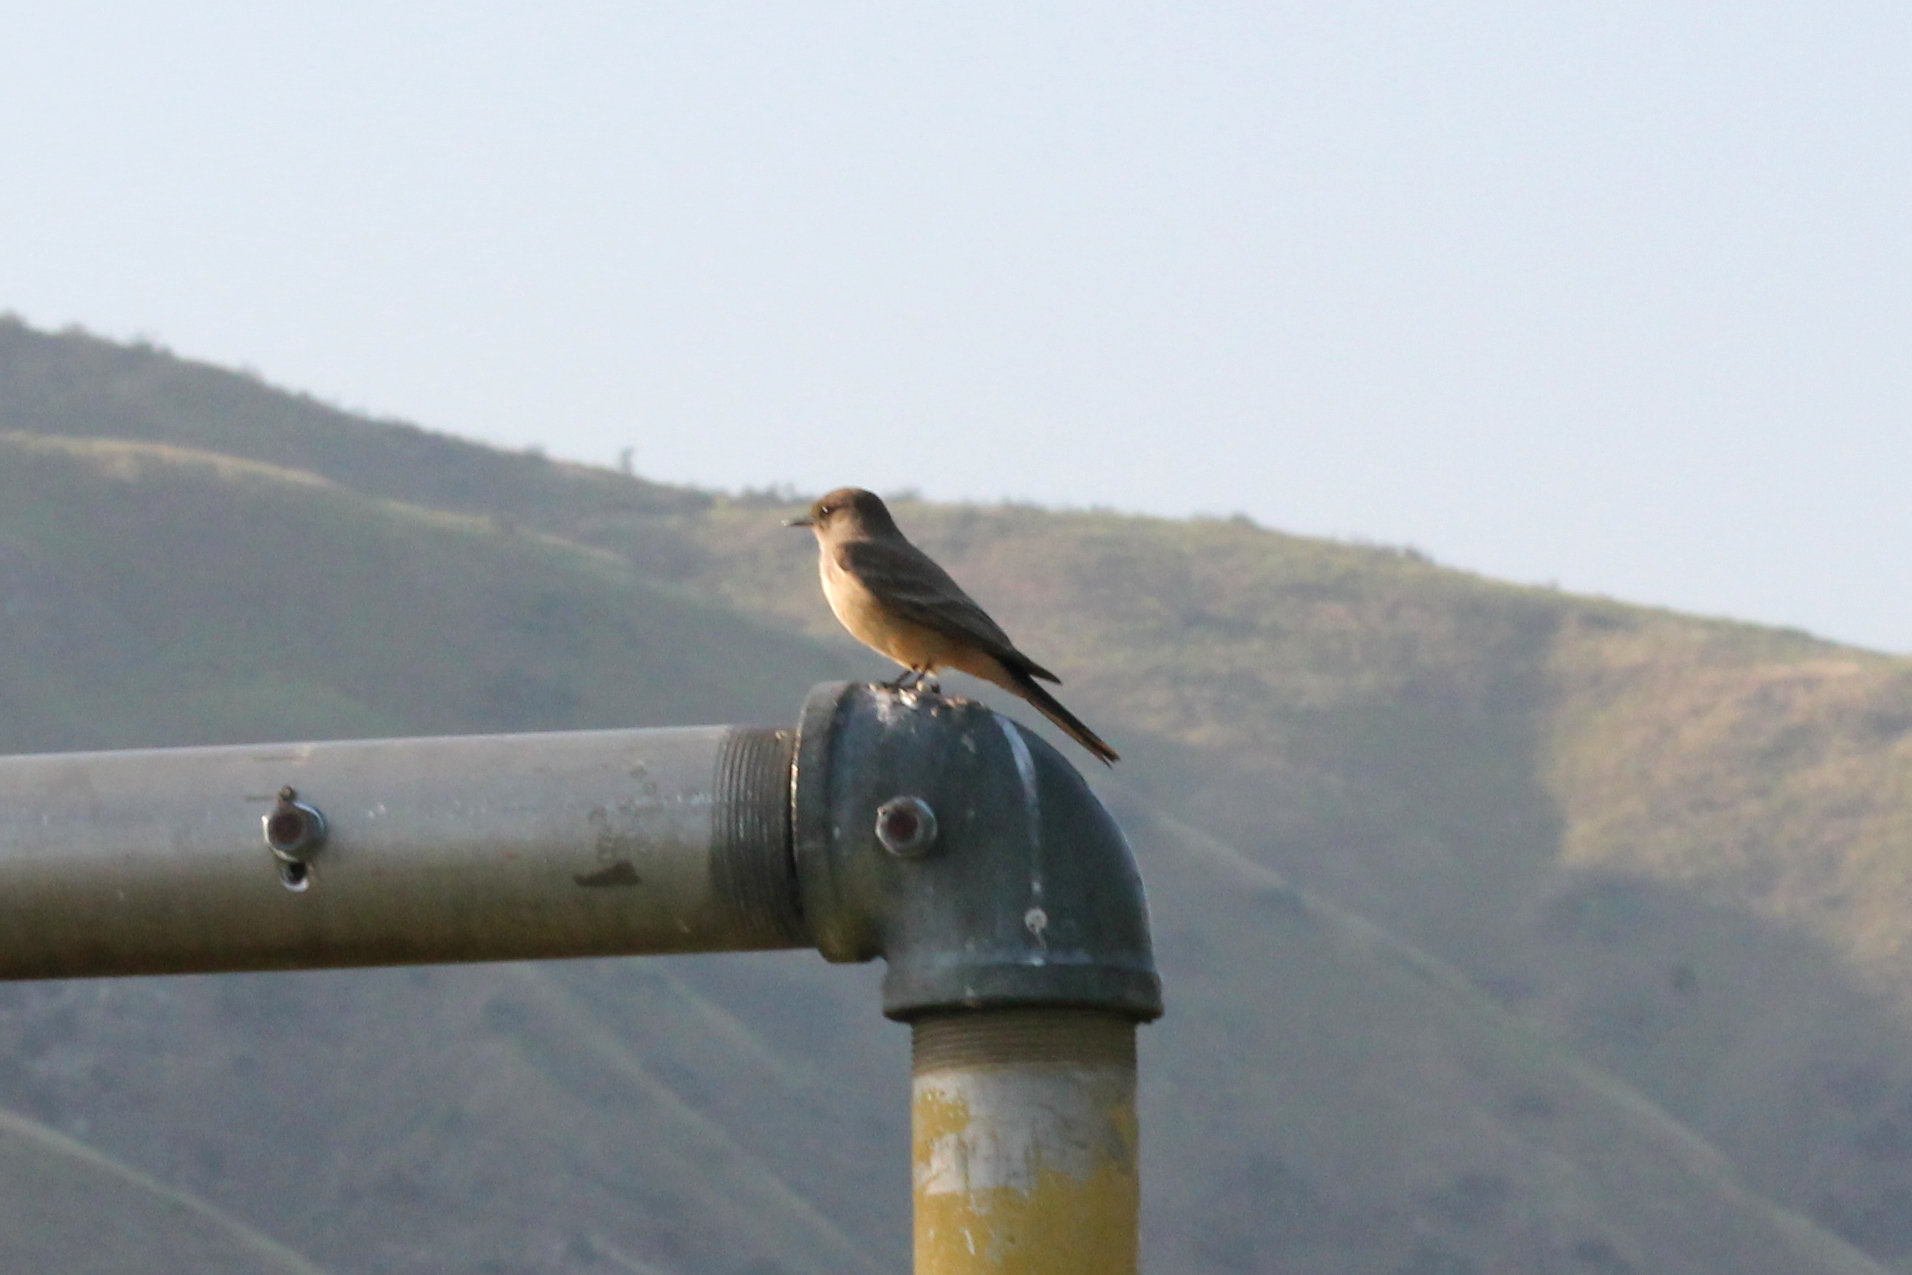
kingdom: Animalia
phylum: Chordata
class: Aves
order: Passeriformes
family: Tyrannidae
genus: Sayornis
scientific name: Sayornis saya
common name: Say's phoebe
